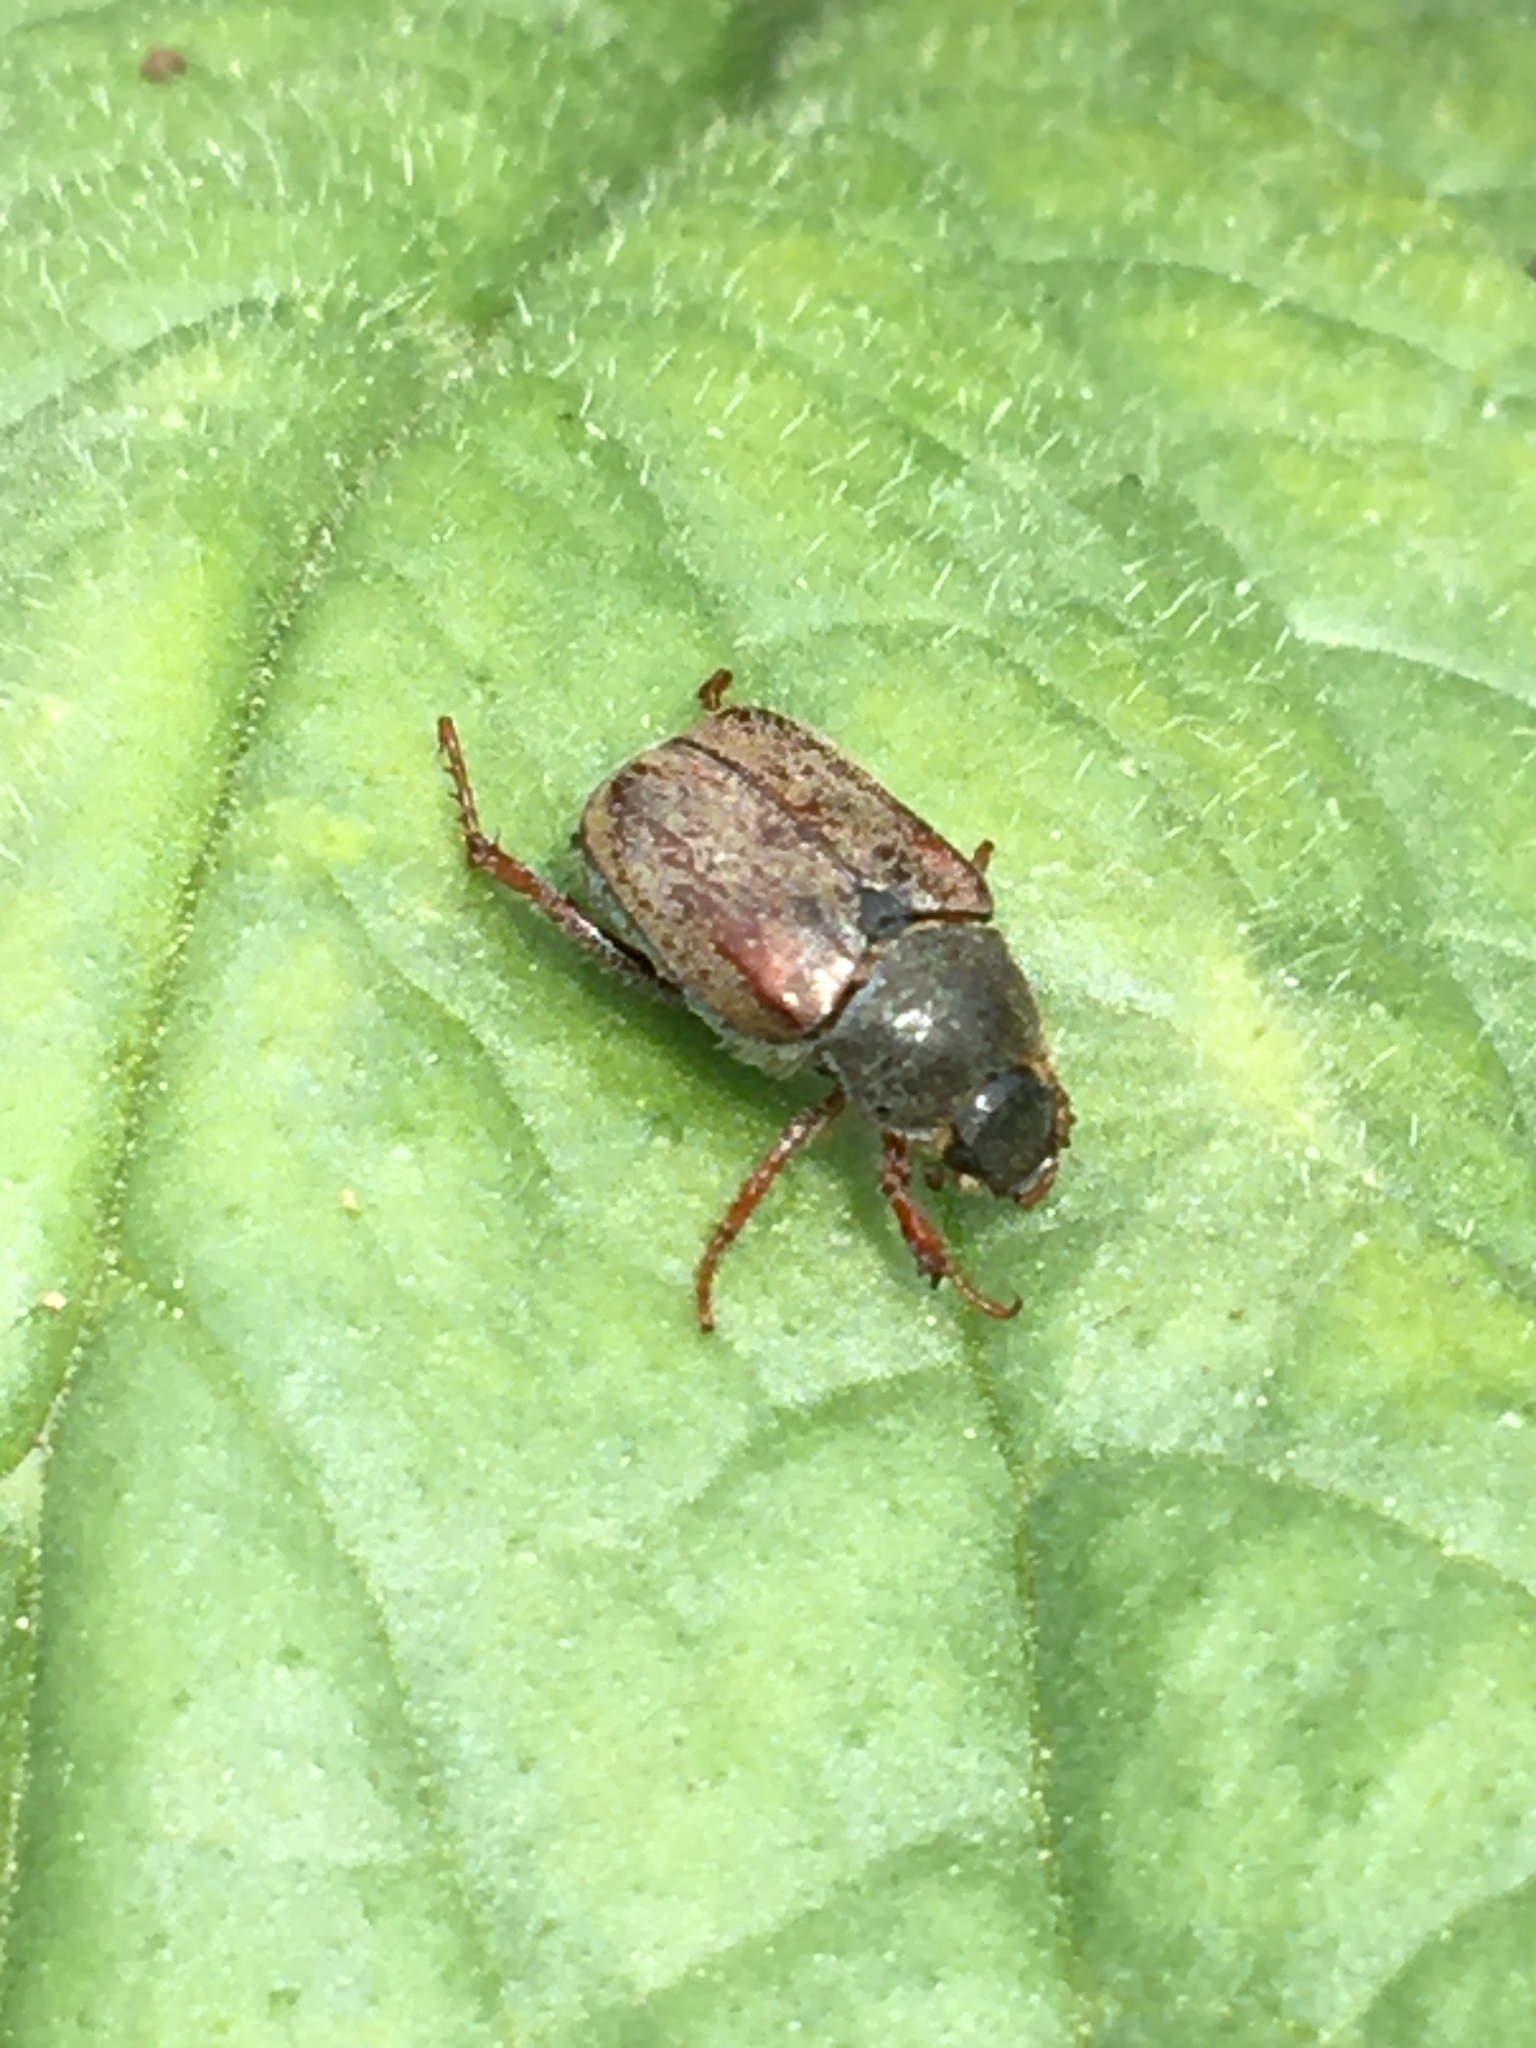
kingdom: Animalia
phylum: Arthropoda
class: Insecta
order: Coleoptera
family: Scarabaeidae
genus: Hoplia
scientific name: Hoplia philanthus
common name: Welsh chafer
